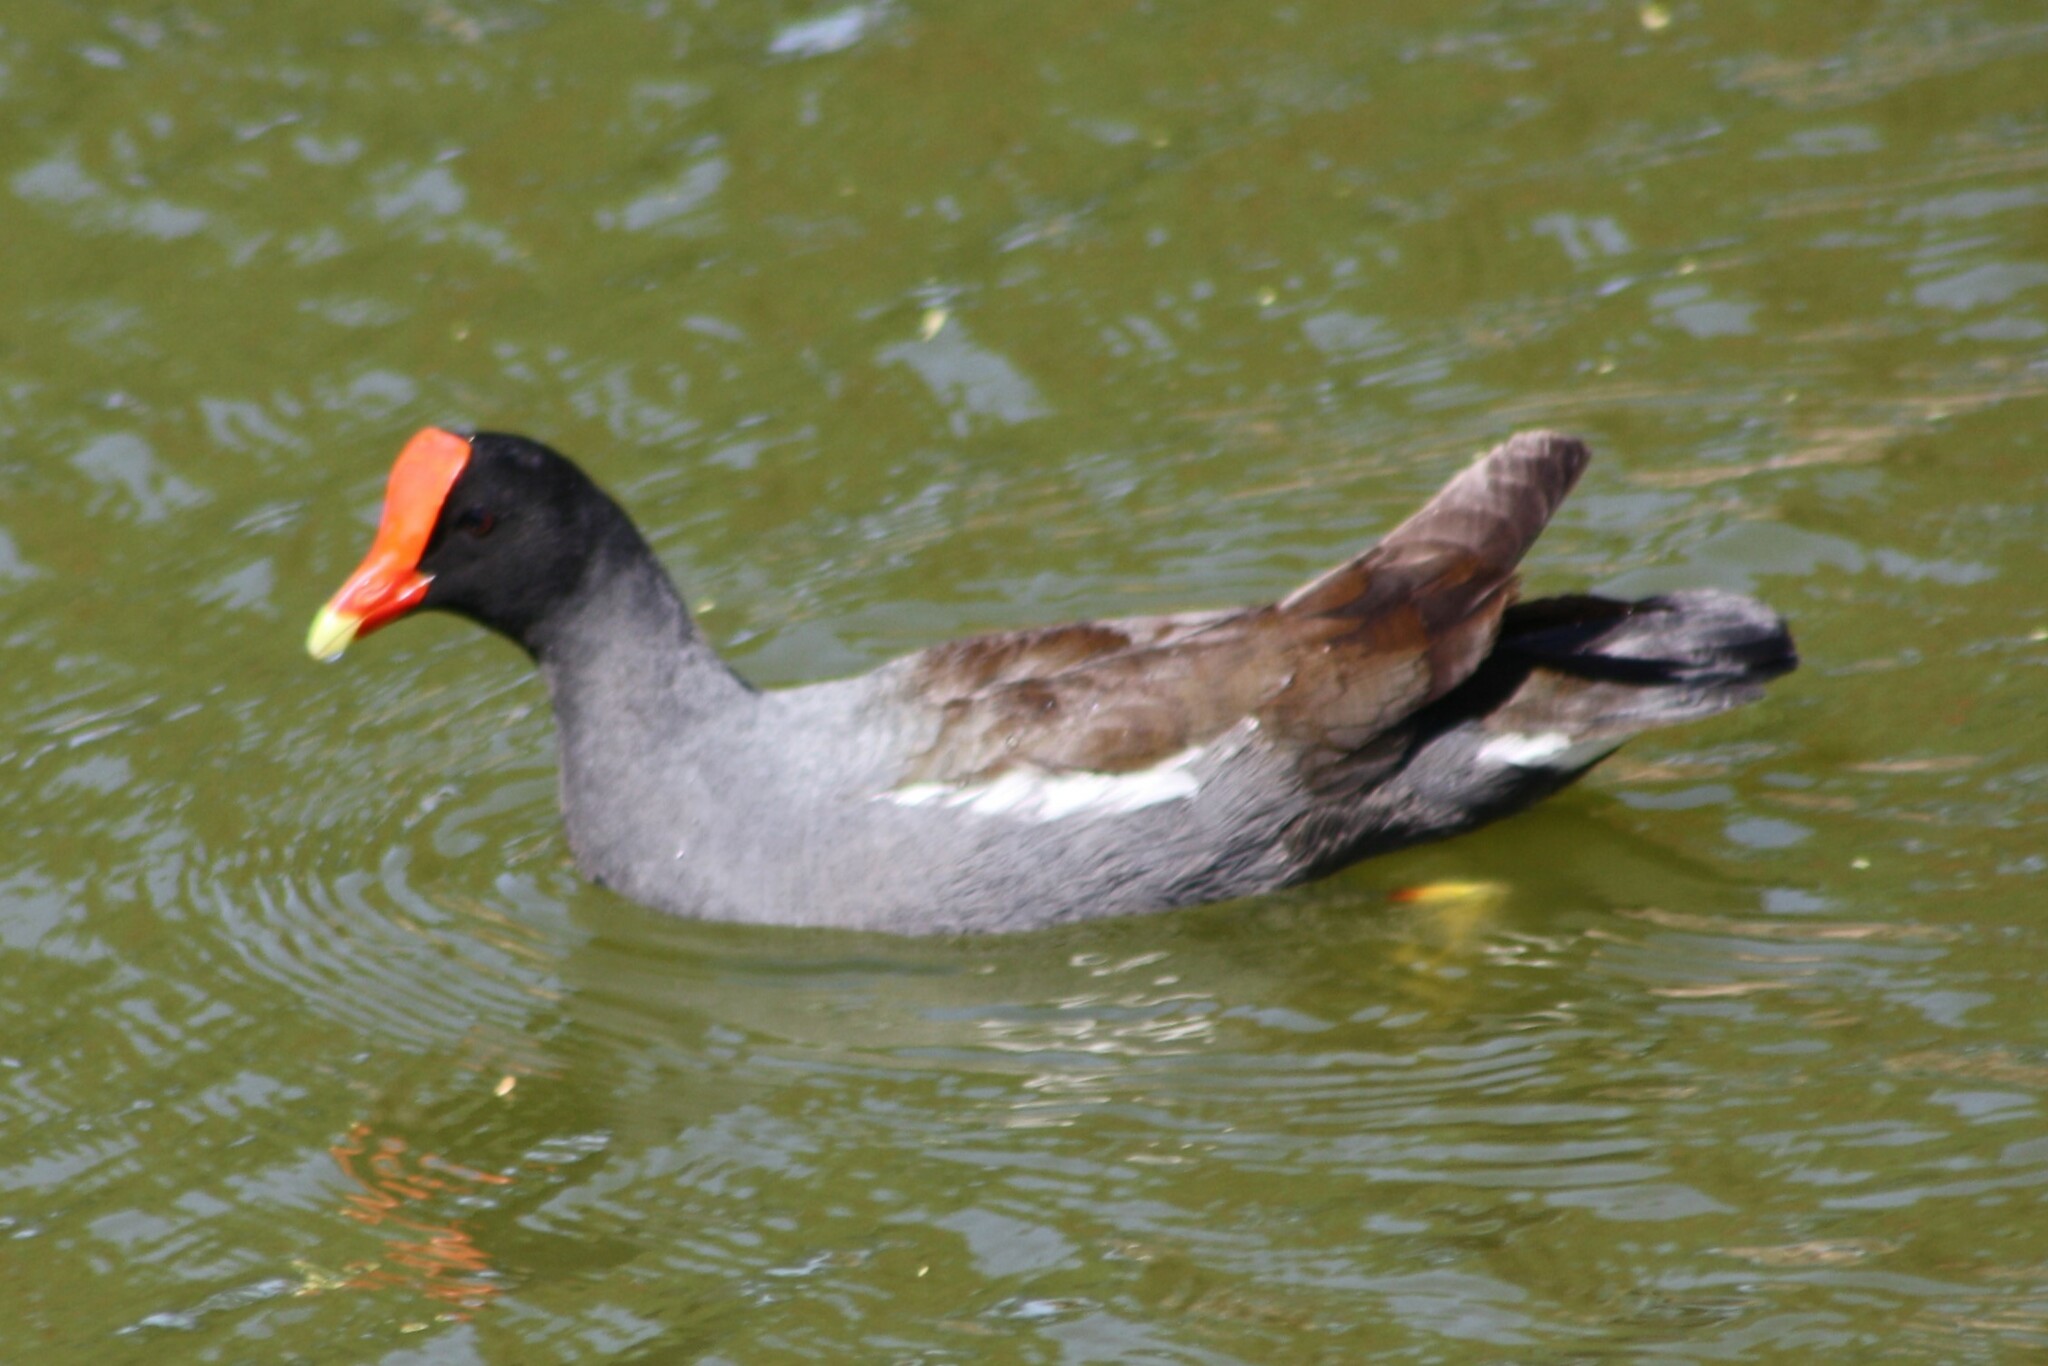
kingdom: Animalia
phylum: Chordata
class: Aves
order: Gruiformes
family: Rallidae
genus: Gallinula
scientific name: Gallinula chloropus
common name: Common moorhen
